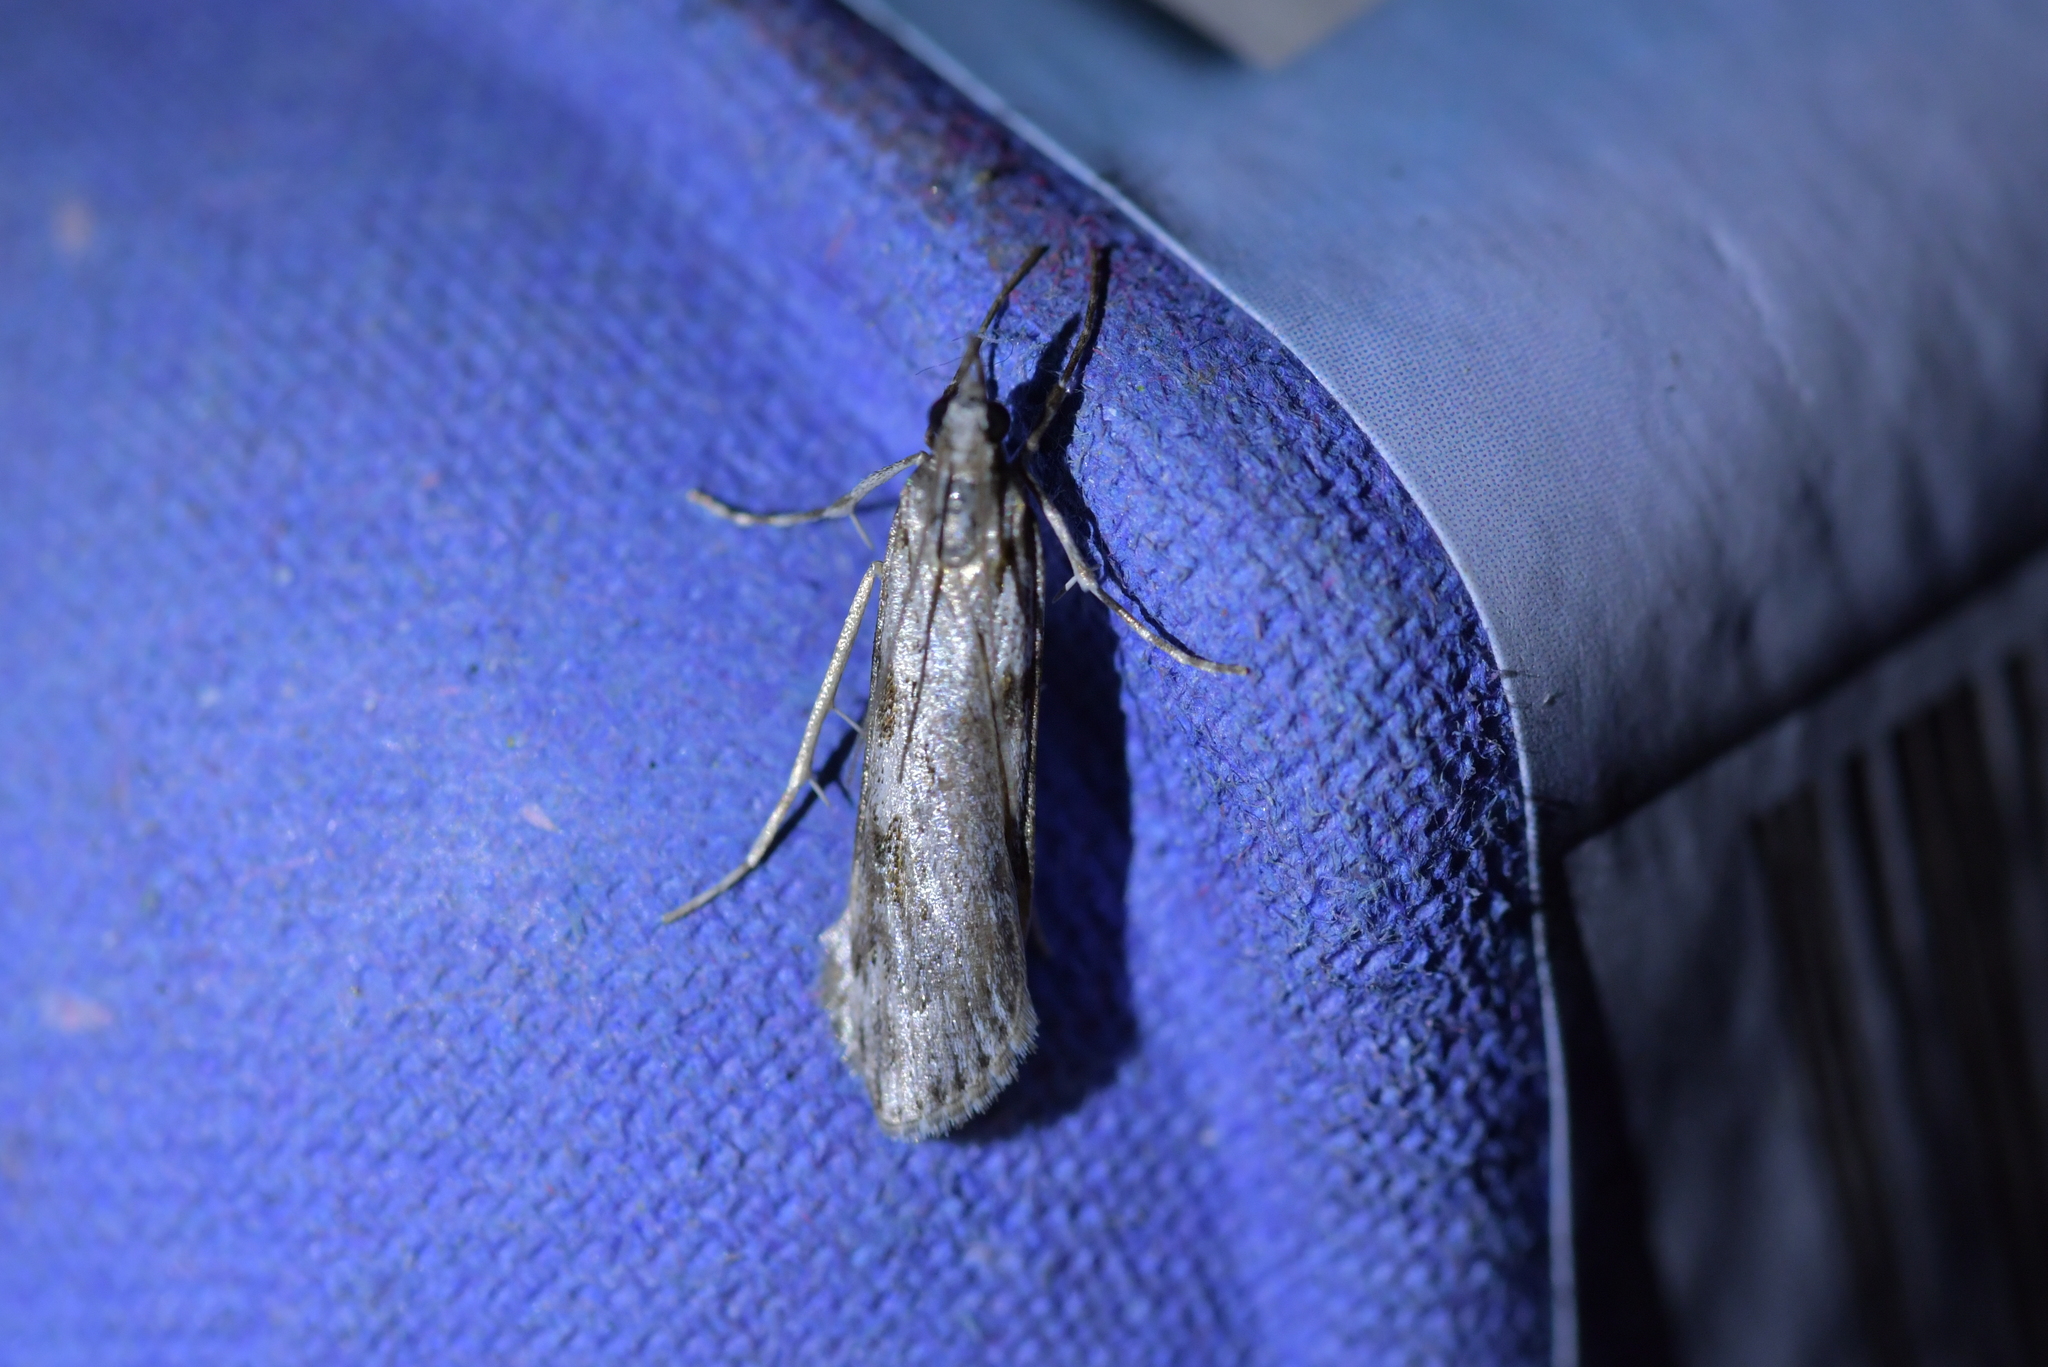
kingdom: Animalia
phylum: Arthropoda
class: Insecta
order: Lepidoptera
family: Crambidae
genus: Scoparia
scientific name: Scoparia halopis
